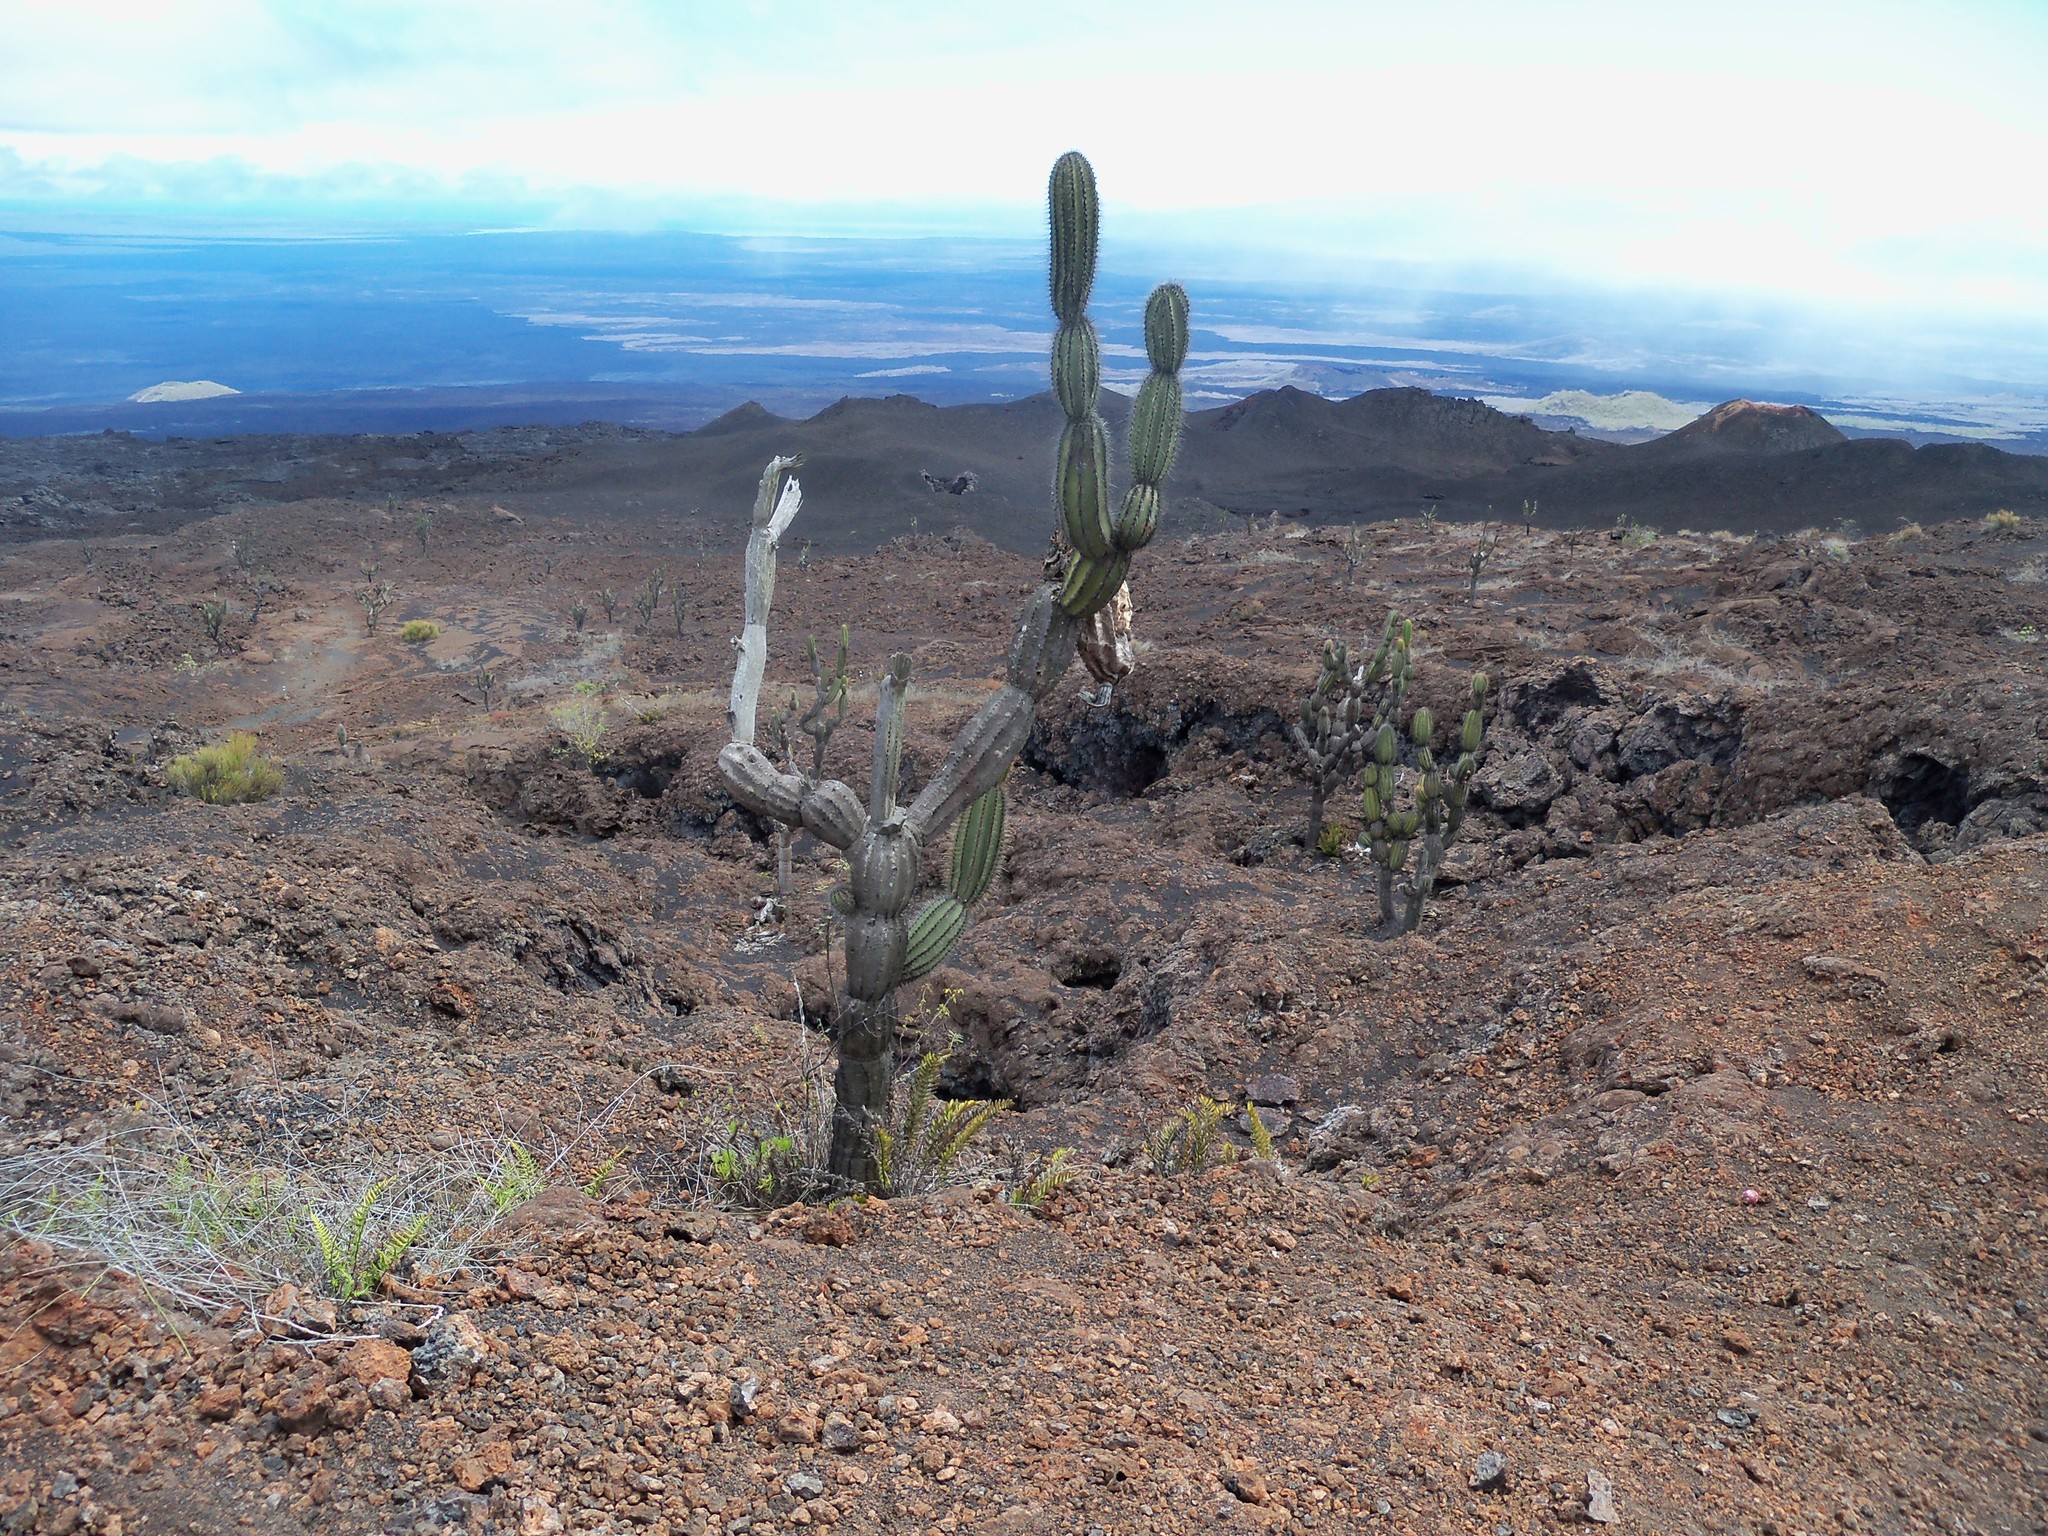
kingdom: Plantae
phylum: Tracheophyta
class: Magnoliopsida
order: Caryophyllales
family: Cactaceae
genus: Jasminocereus
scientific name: Jasminocereus thouarsii
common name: Candelabra cactus
